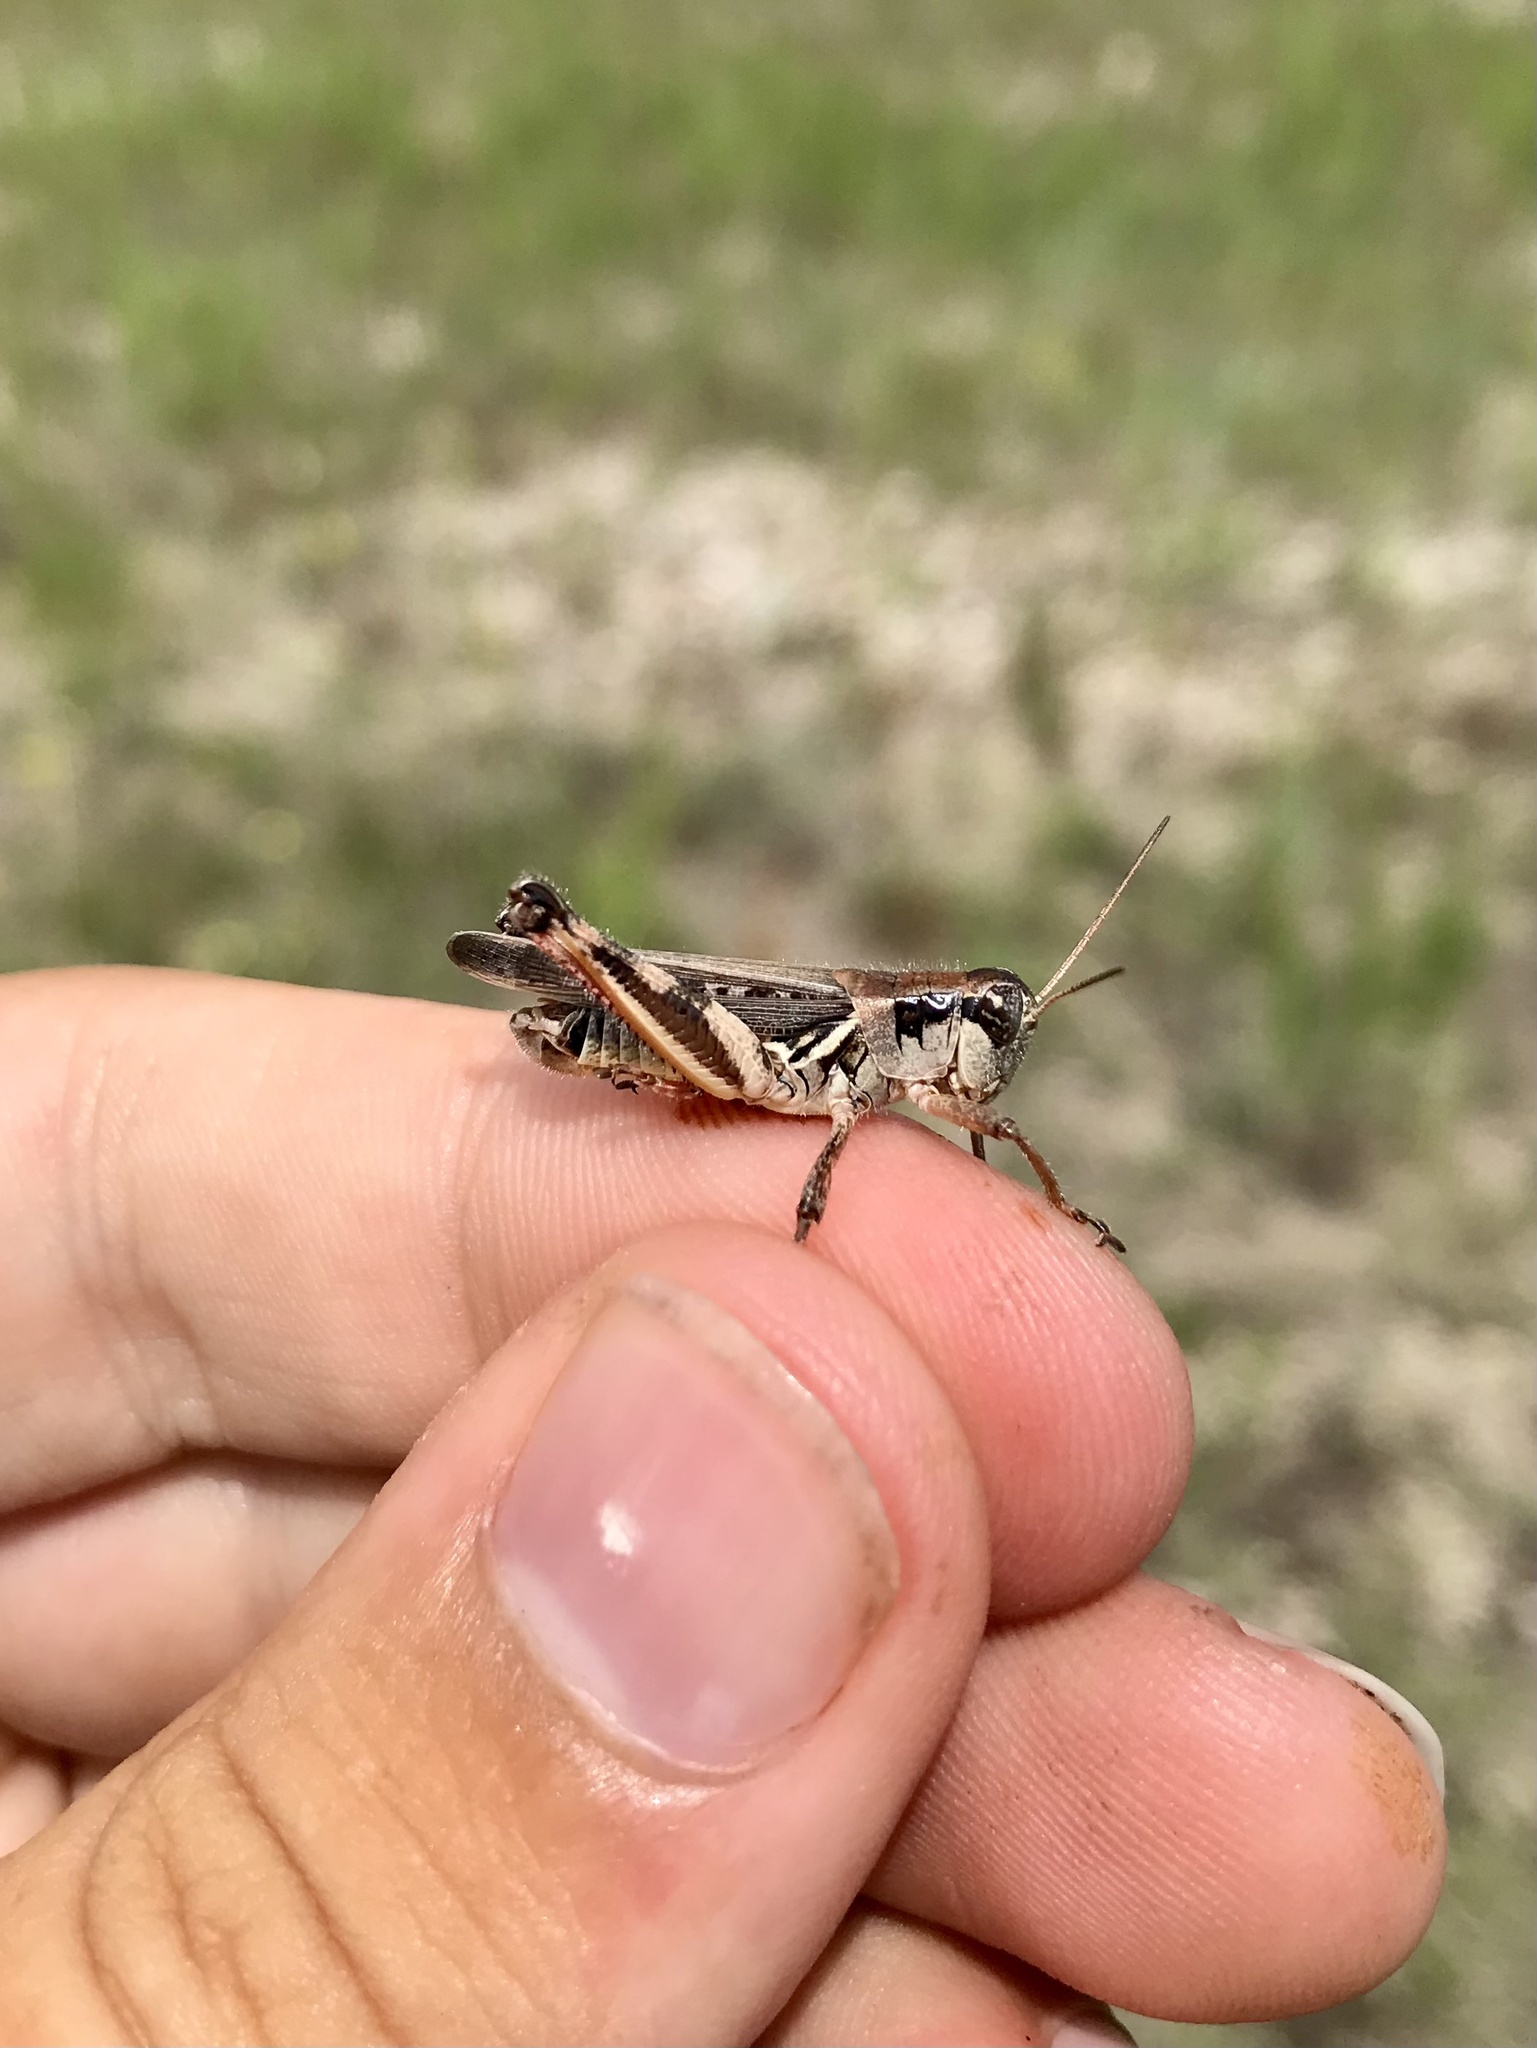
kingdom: Animalia
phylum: Arthropoda
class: Insecta
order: Orthoptera
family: Acrididae
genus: Melanoplus
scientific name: Melanoplus keeleri
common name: Keeler grasshopper
